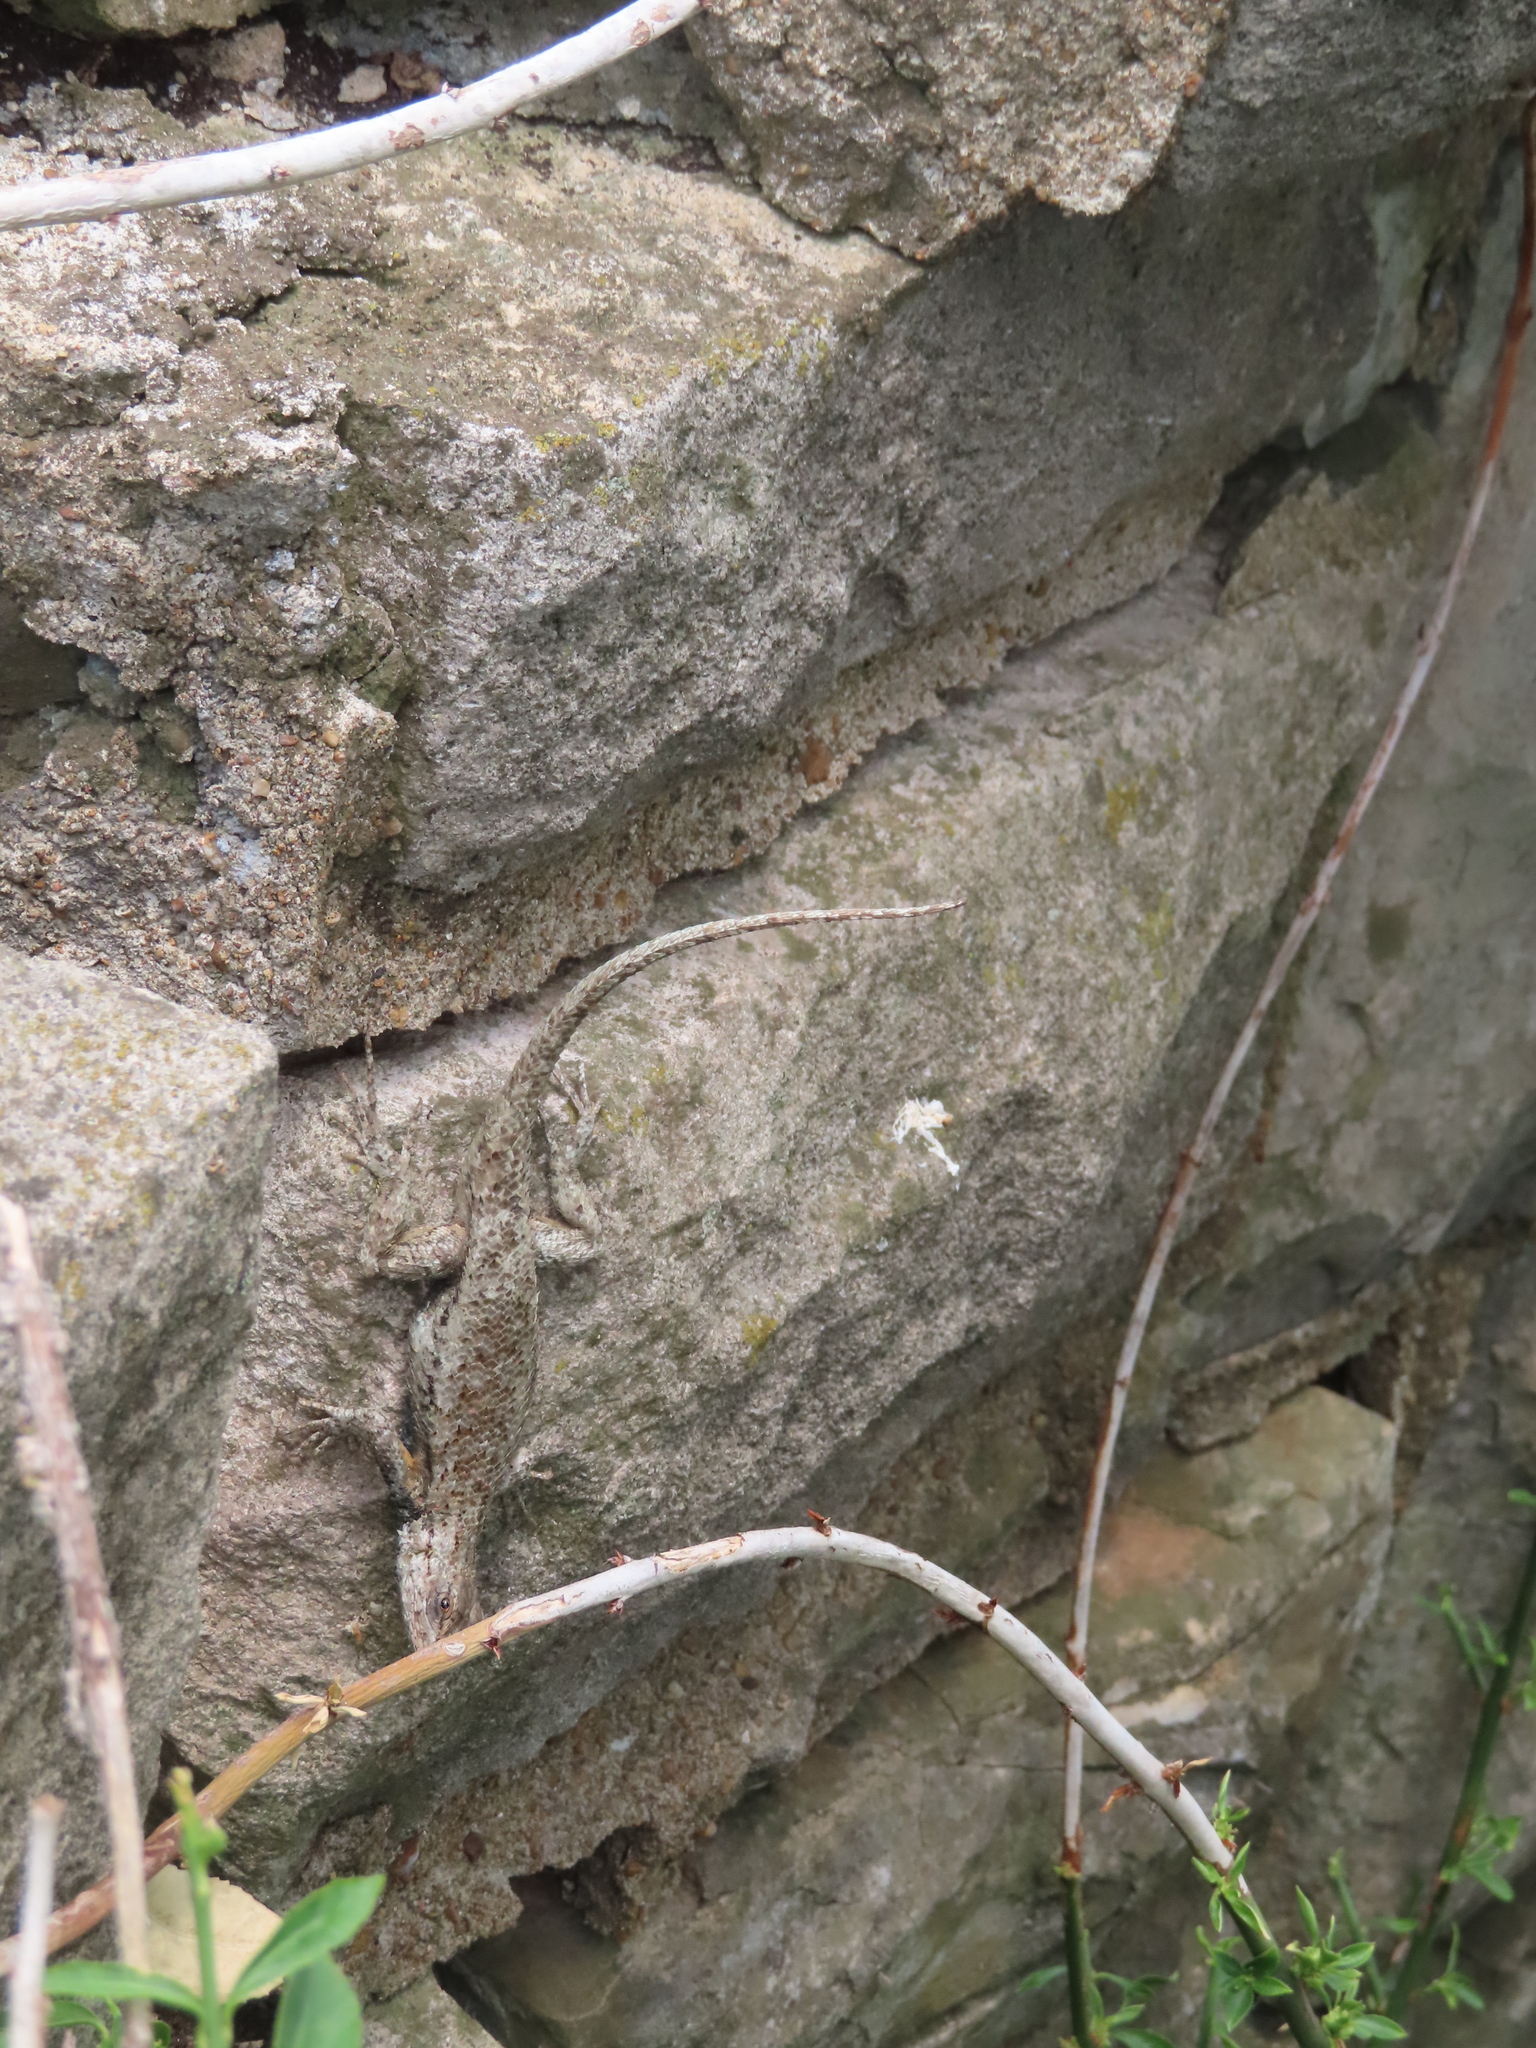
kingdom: Animalia
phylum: Chordata
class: Squamata
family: Phrynosomatidae
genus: Sceloporus
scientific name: Sceloporus undulatus
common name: Eastern fence lizard
